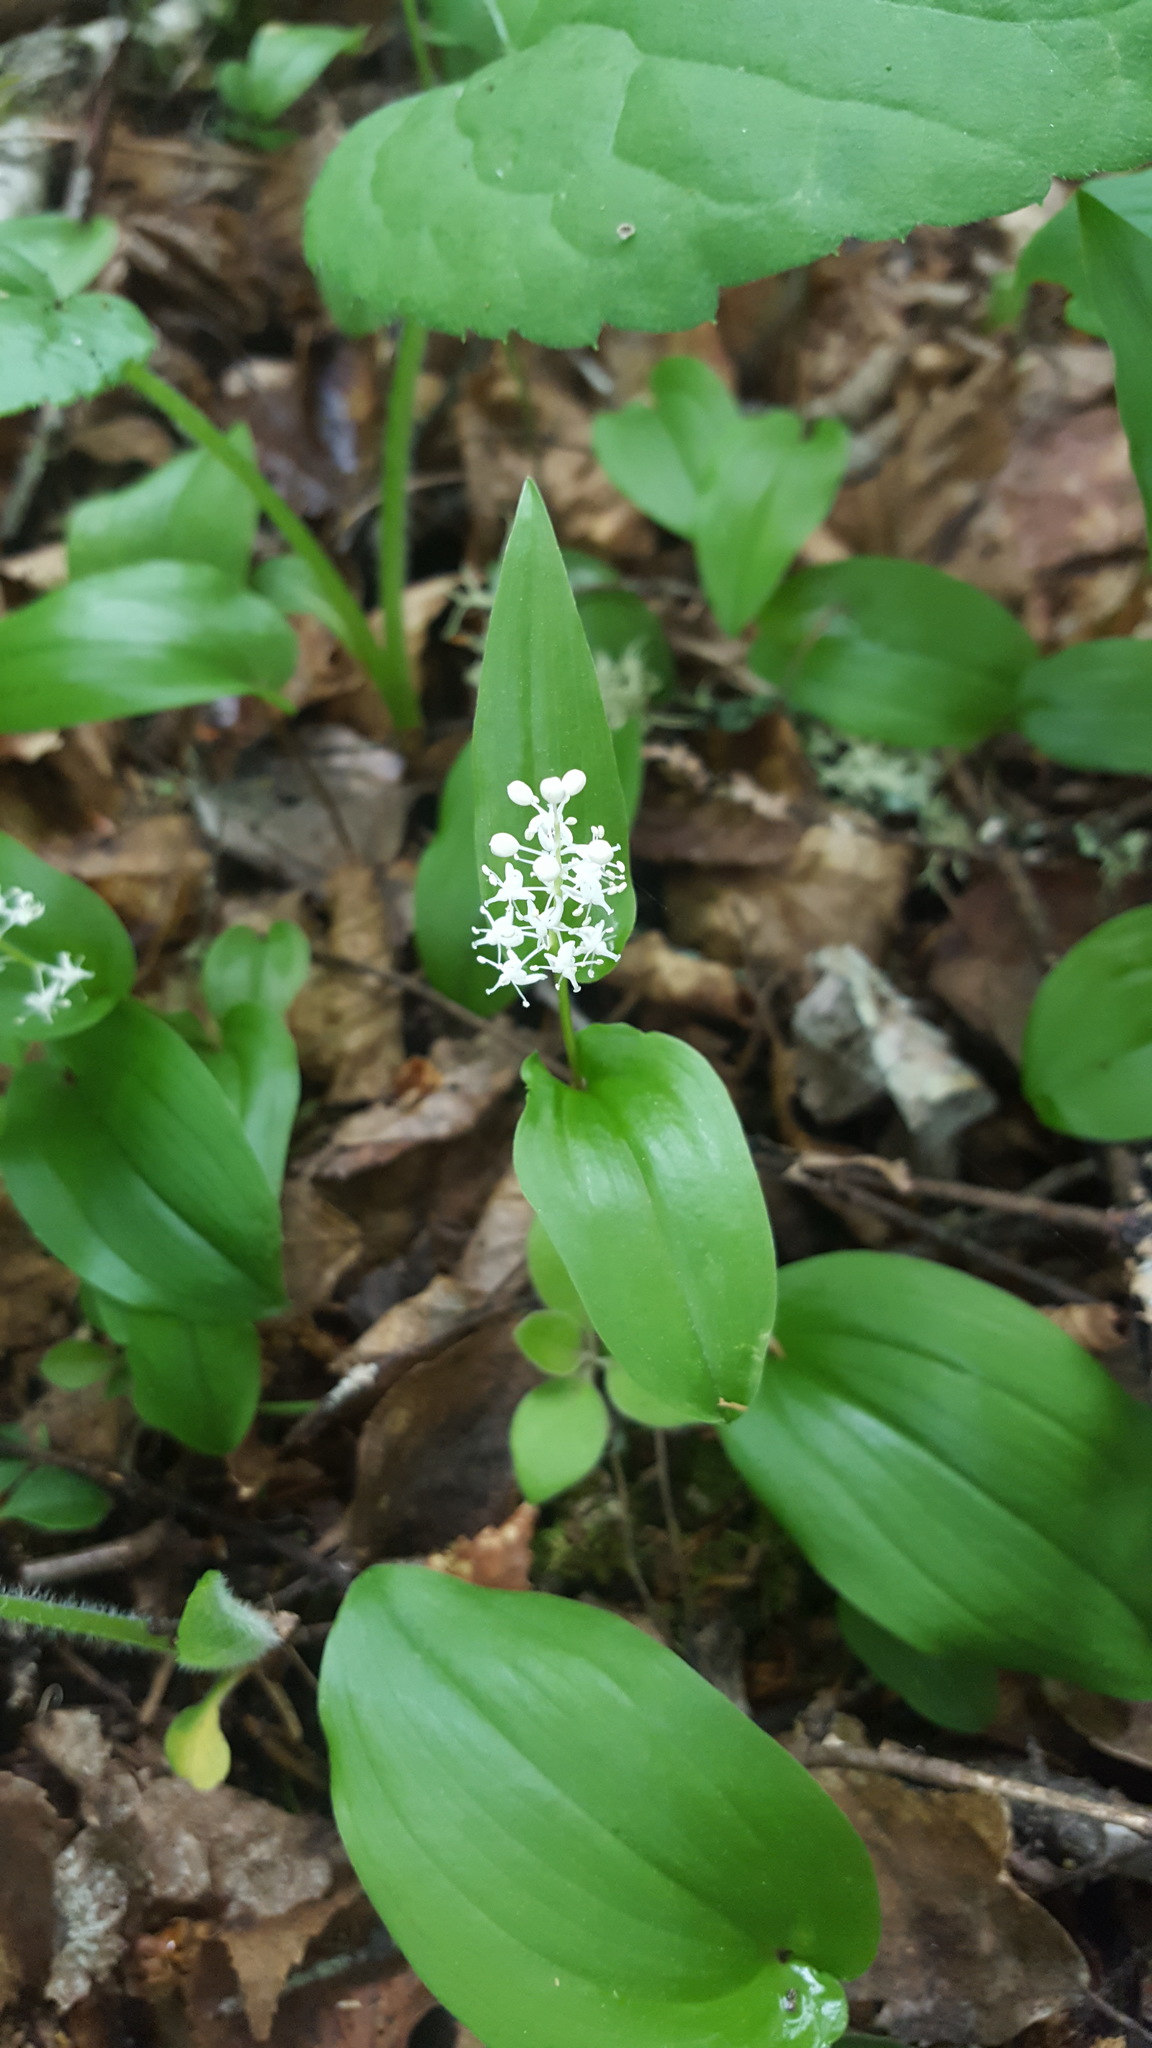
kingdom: Plantae
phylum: Tracheophyta
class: Liliopsida
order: Asparagales
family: Asparagaceae
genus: Maianthemum
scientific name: Maianthemum canadense
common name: False lily-of-the-valley
